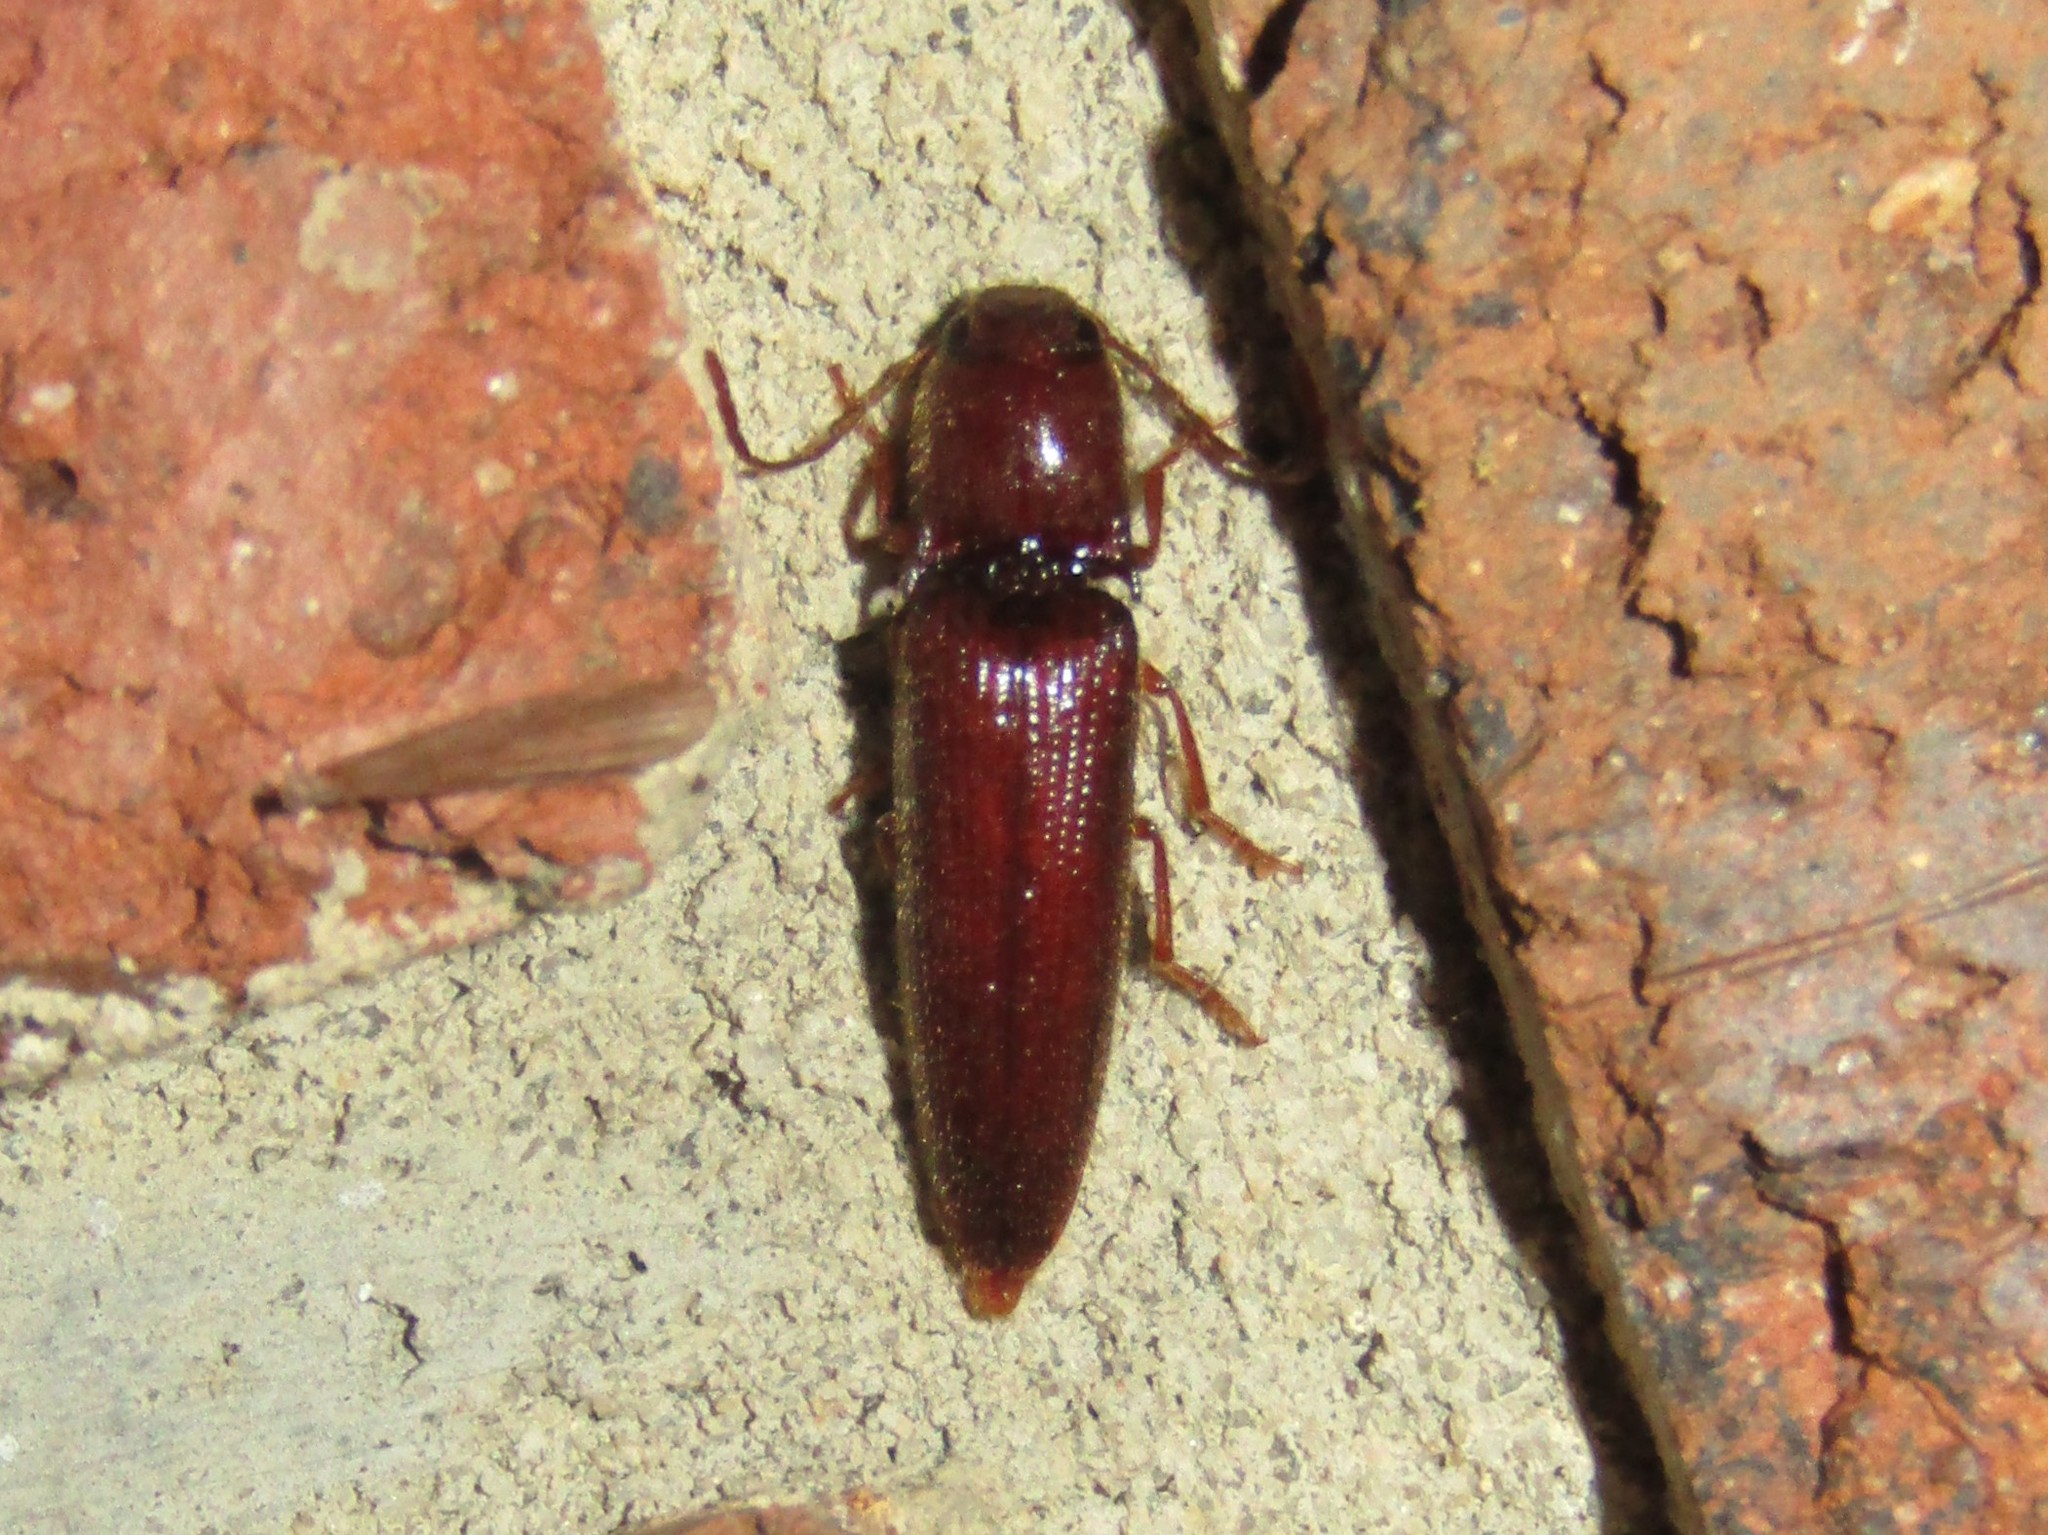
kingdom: Animalia
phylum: Arthropoda
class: Insecta
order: Coleoptera
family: Elateridae
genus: Dicrepidius
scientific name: Dicrepidius palmatus
